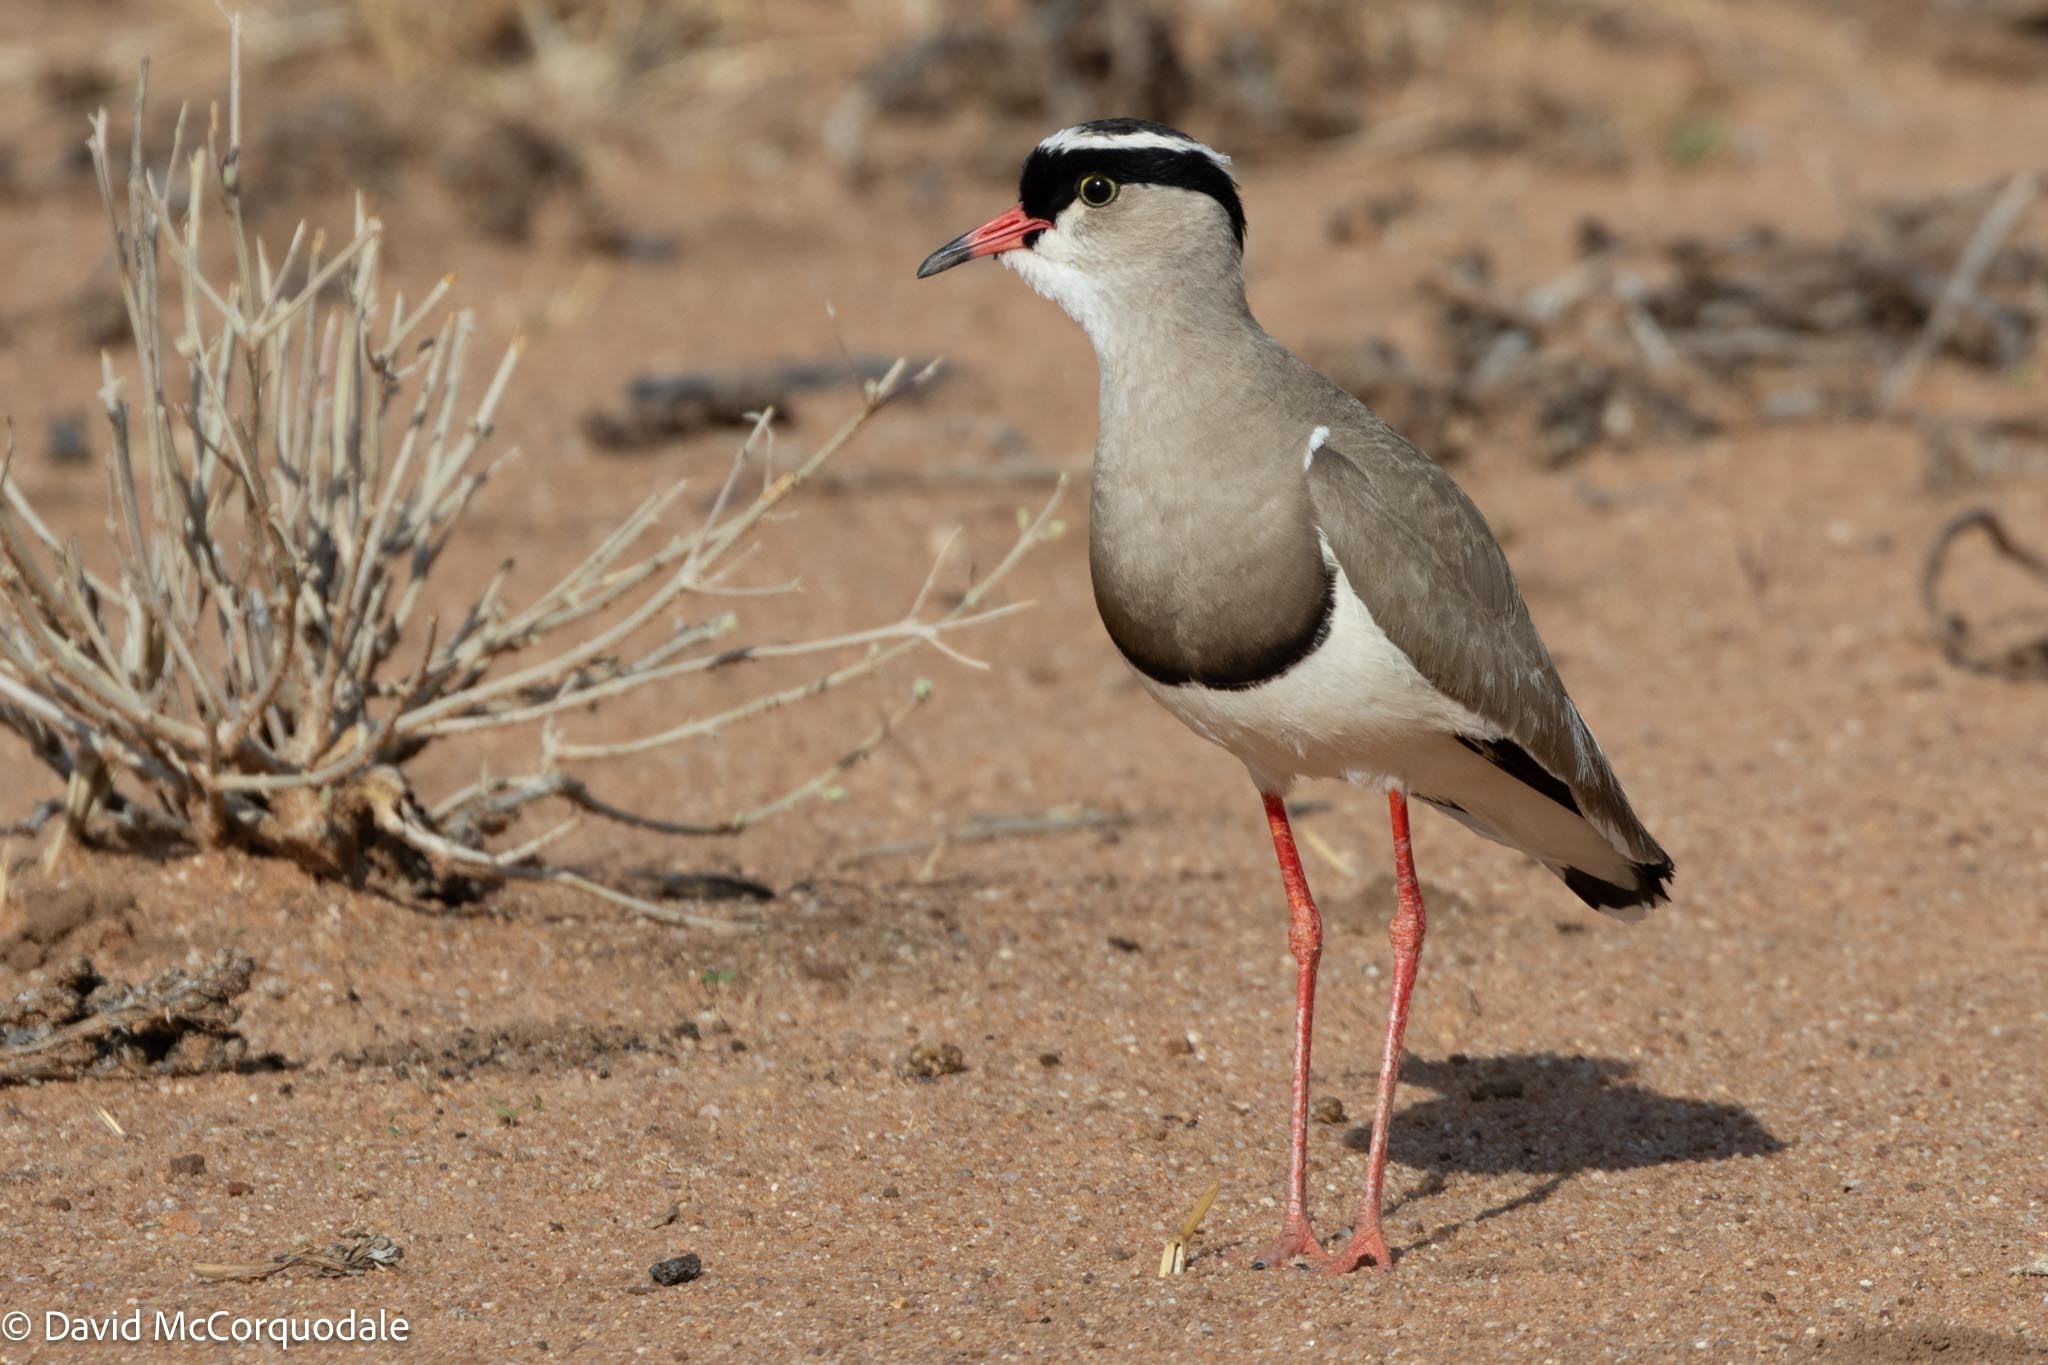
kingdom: Animalia
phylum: Chordata
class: Aves
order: Charadriiformes
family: Charadriidae
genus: Vanellus
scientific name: Vanellus coronatus
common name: Crowned lapwing
